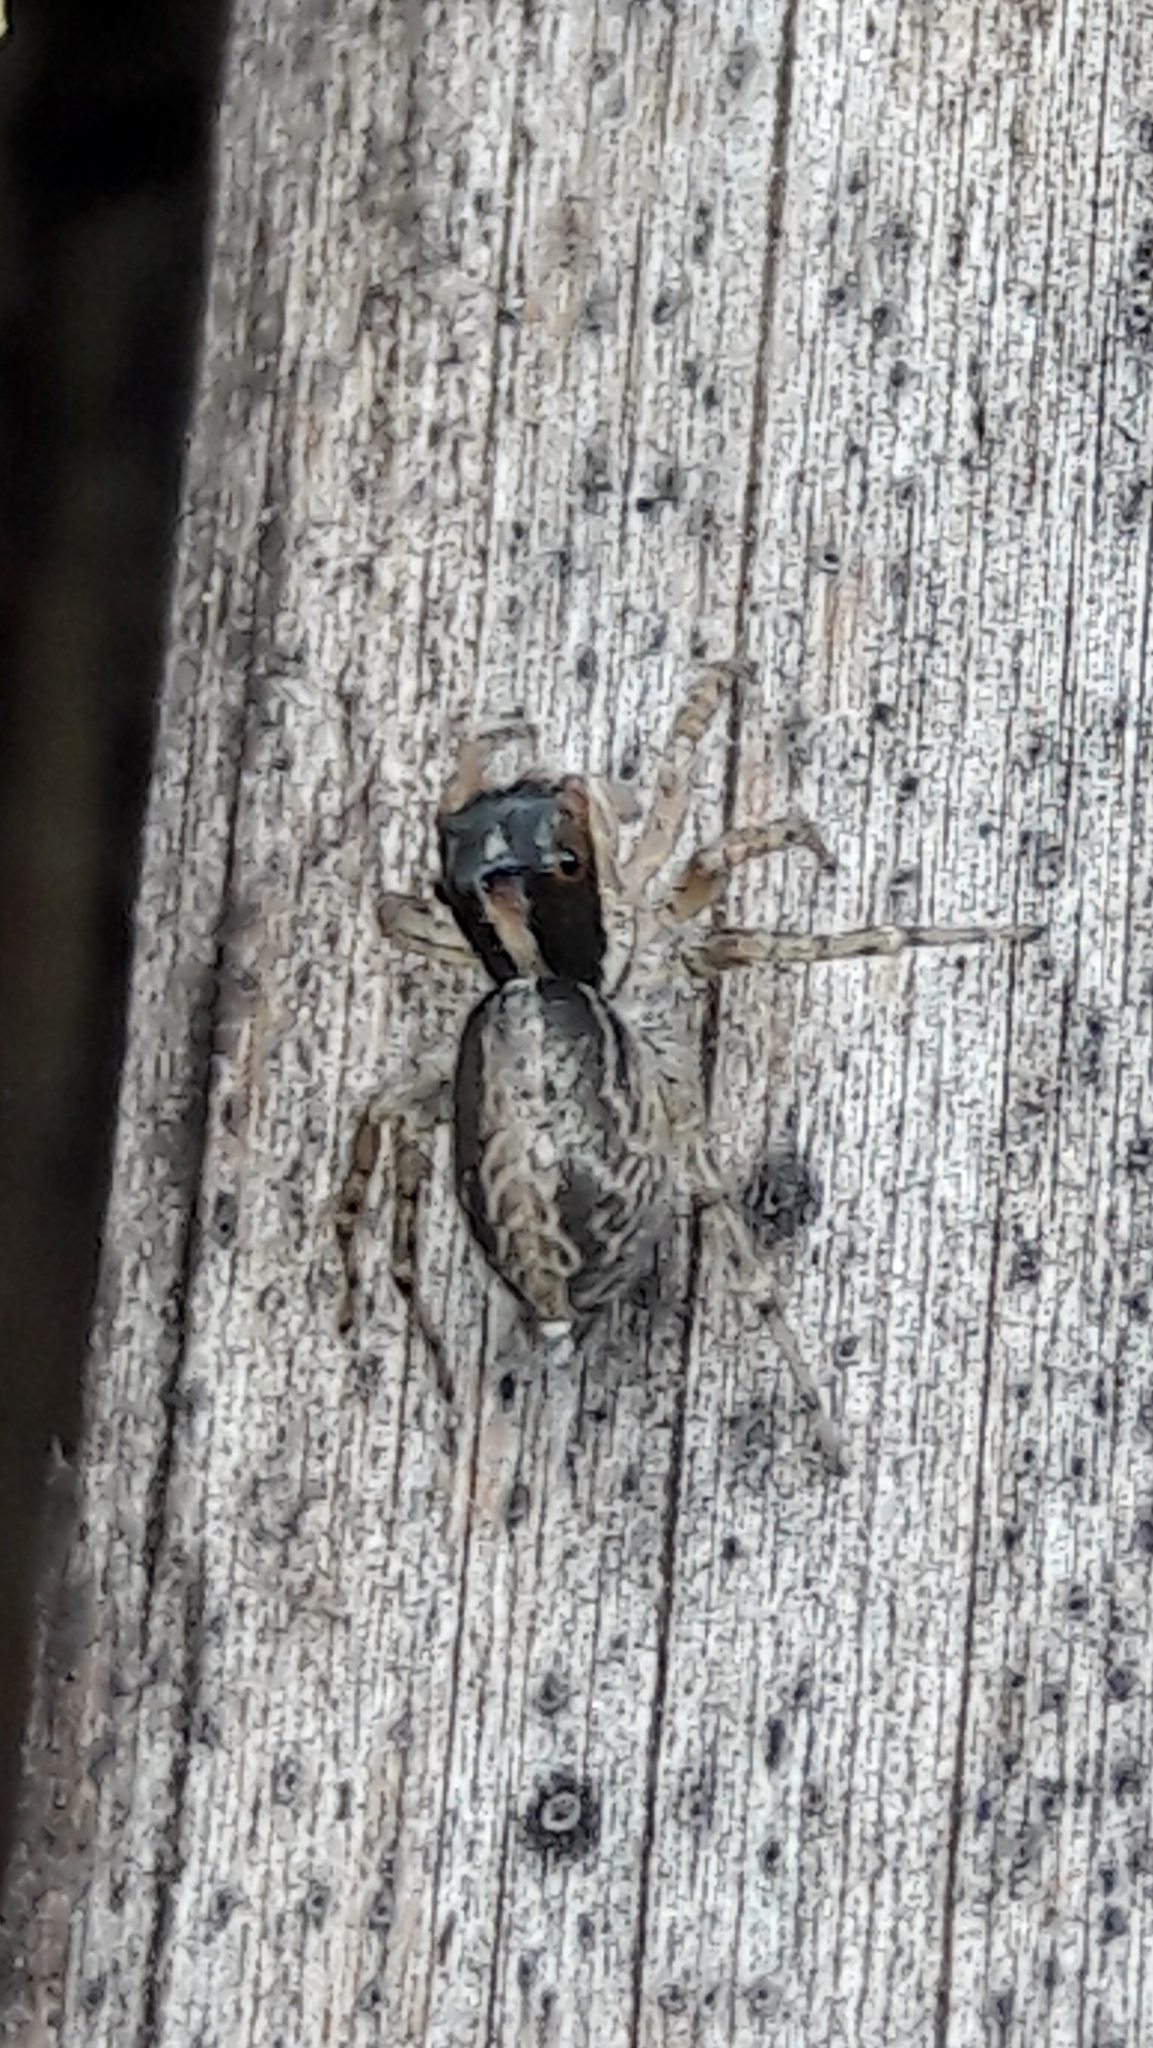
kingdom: Animalia
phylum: Arthropoda
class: Arachnida
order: Araneae
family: Salticidae
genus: Maeota
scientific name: Maeota dichrura
